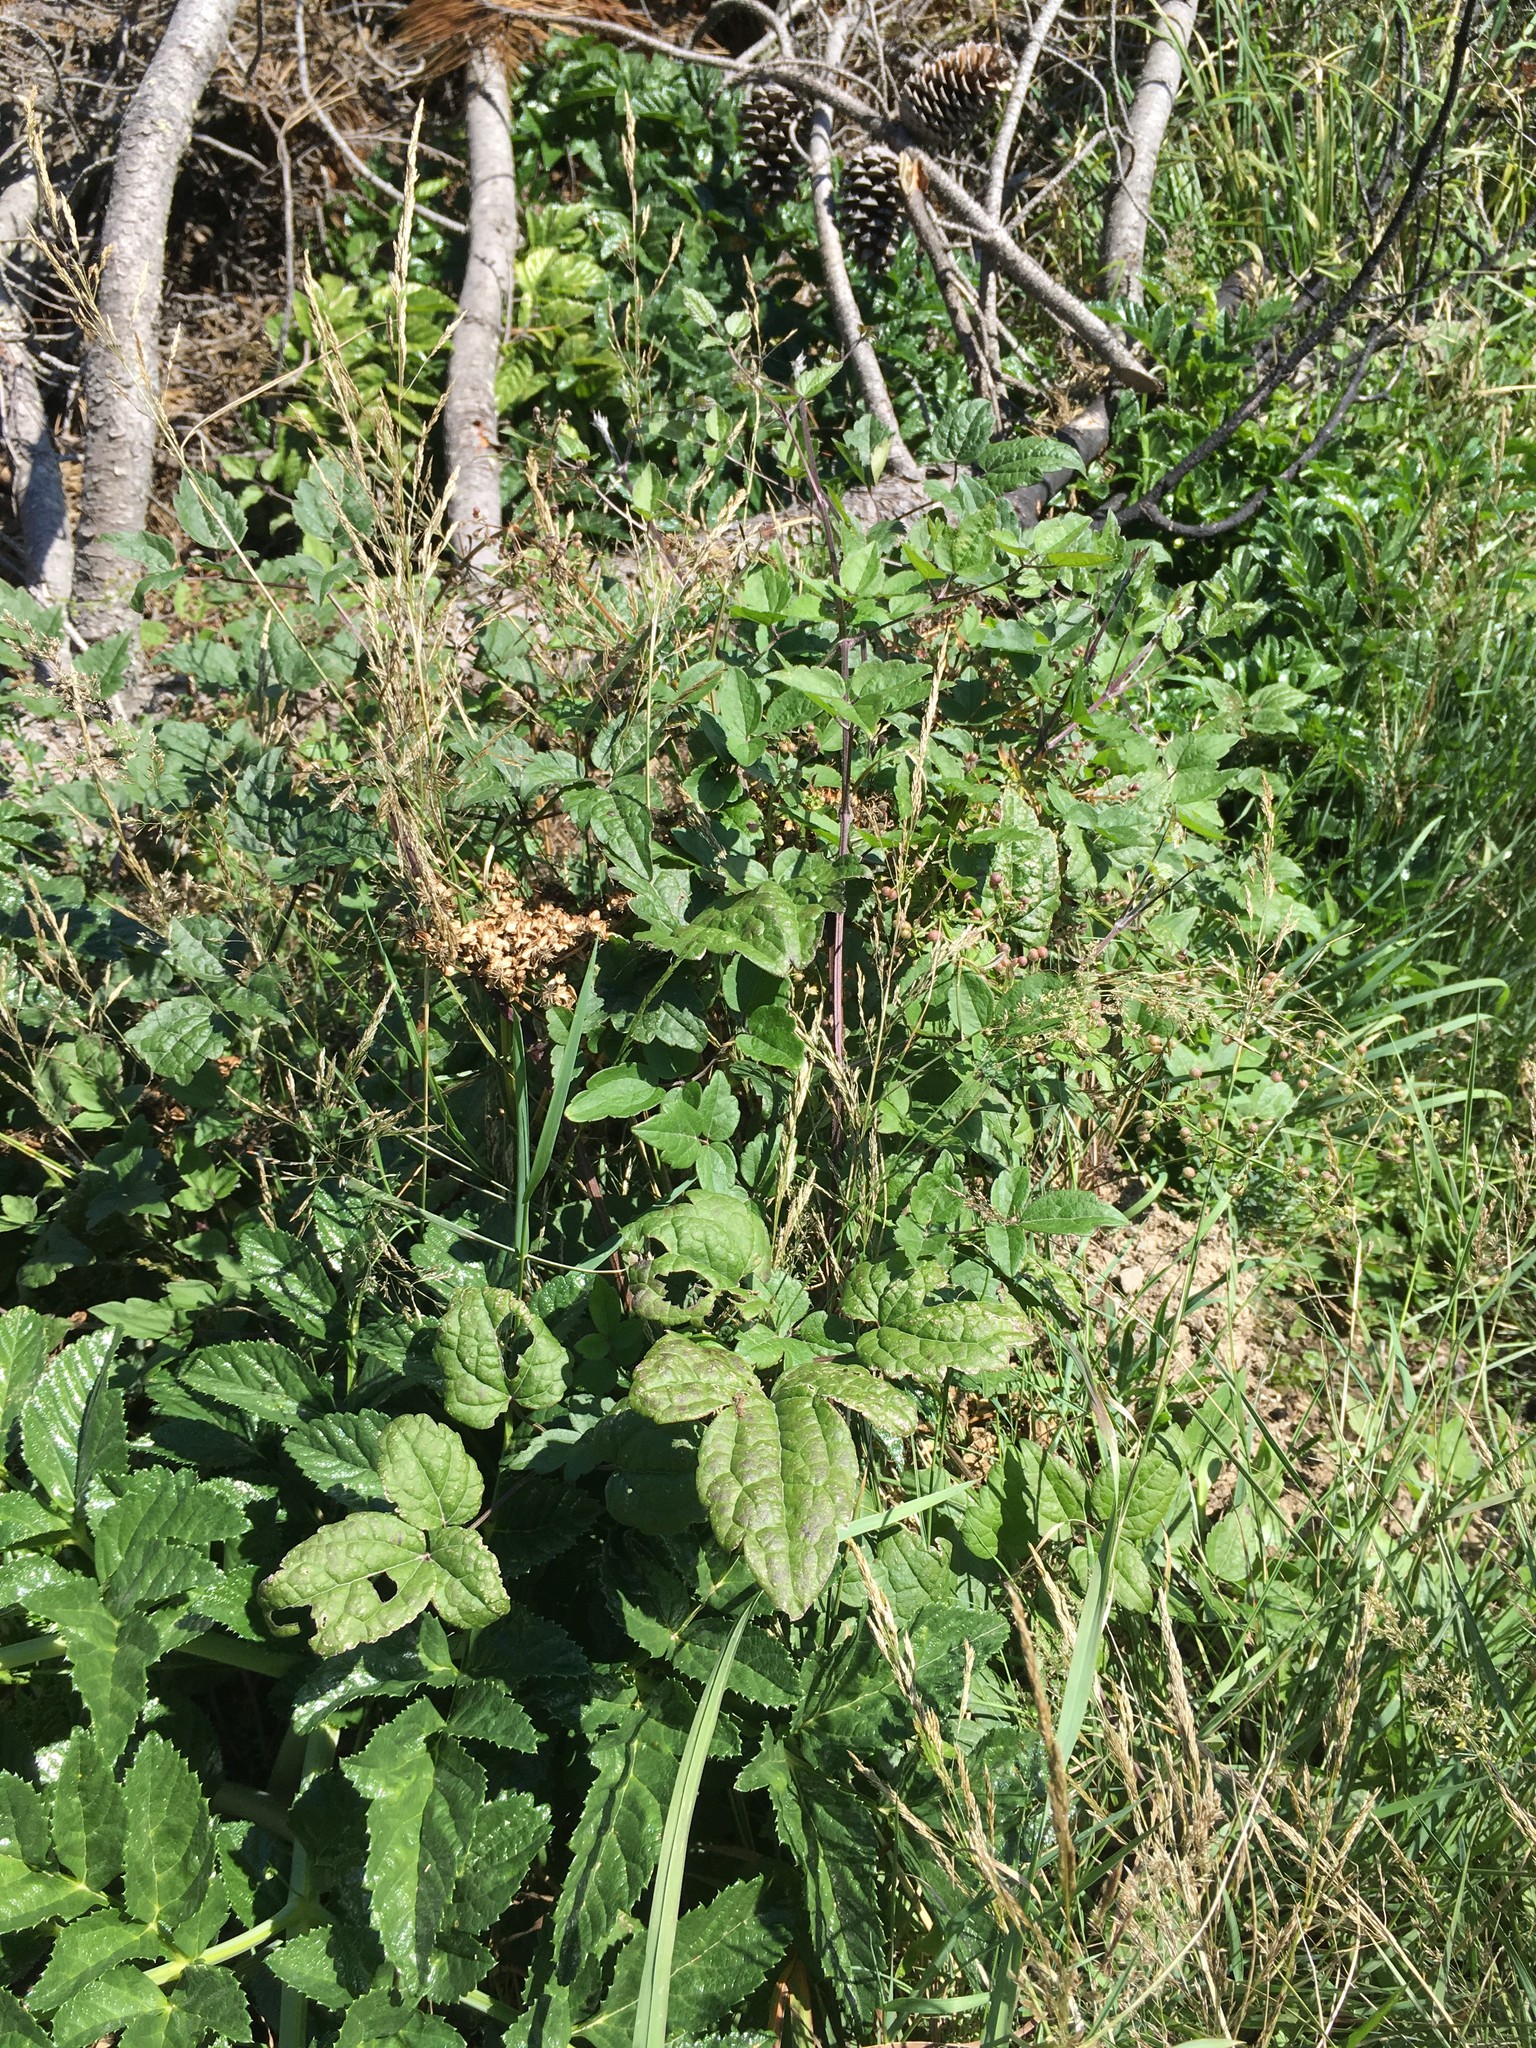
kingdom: Plantae
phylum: Tracheophyta
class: Magnoliopsida
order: Ranunculales
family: Ranunculaceae
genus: Clematis
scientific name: Clematis vitalba
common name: Evergreen clematis
